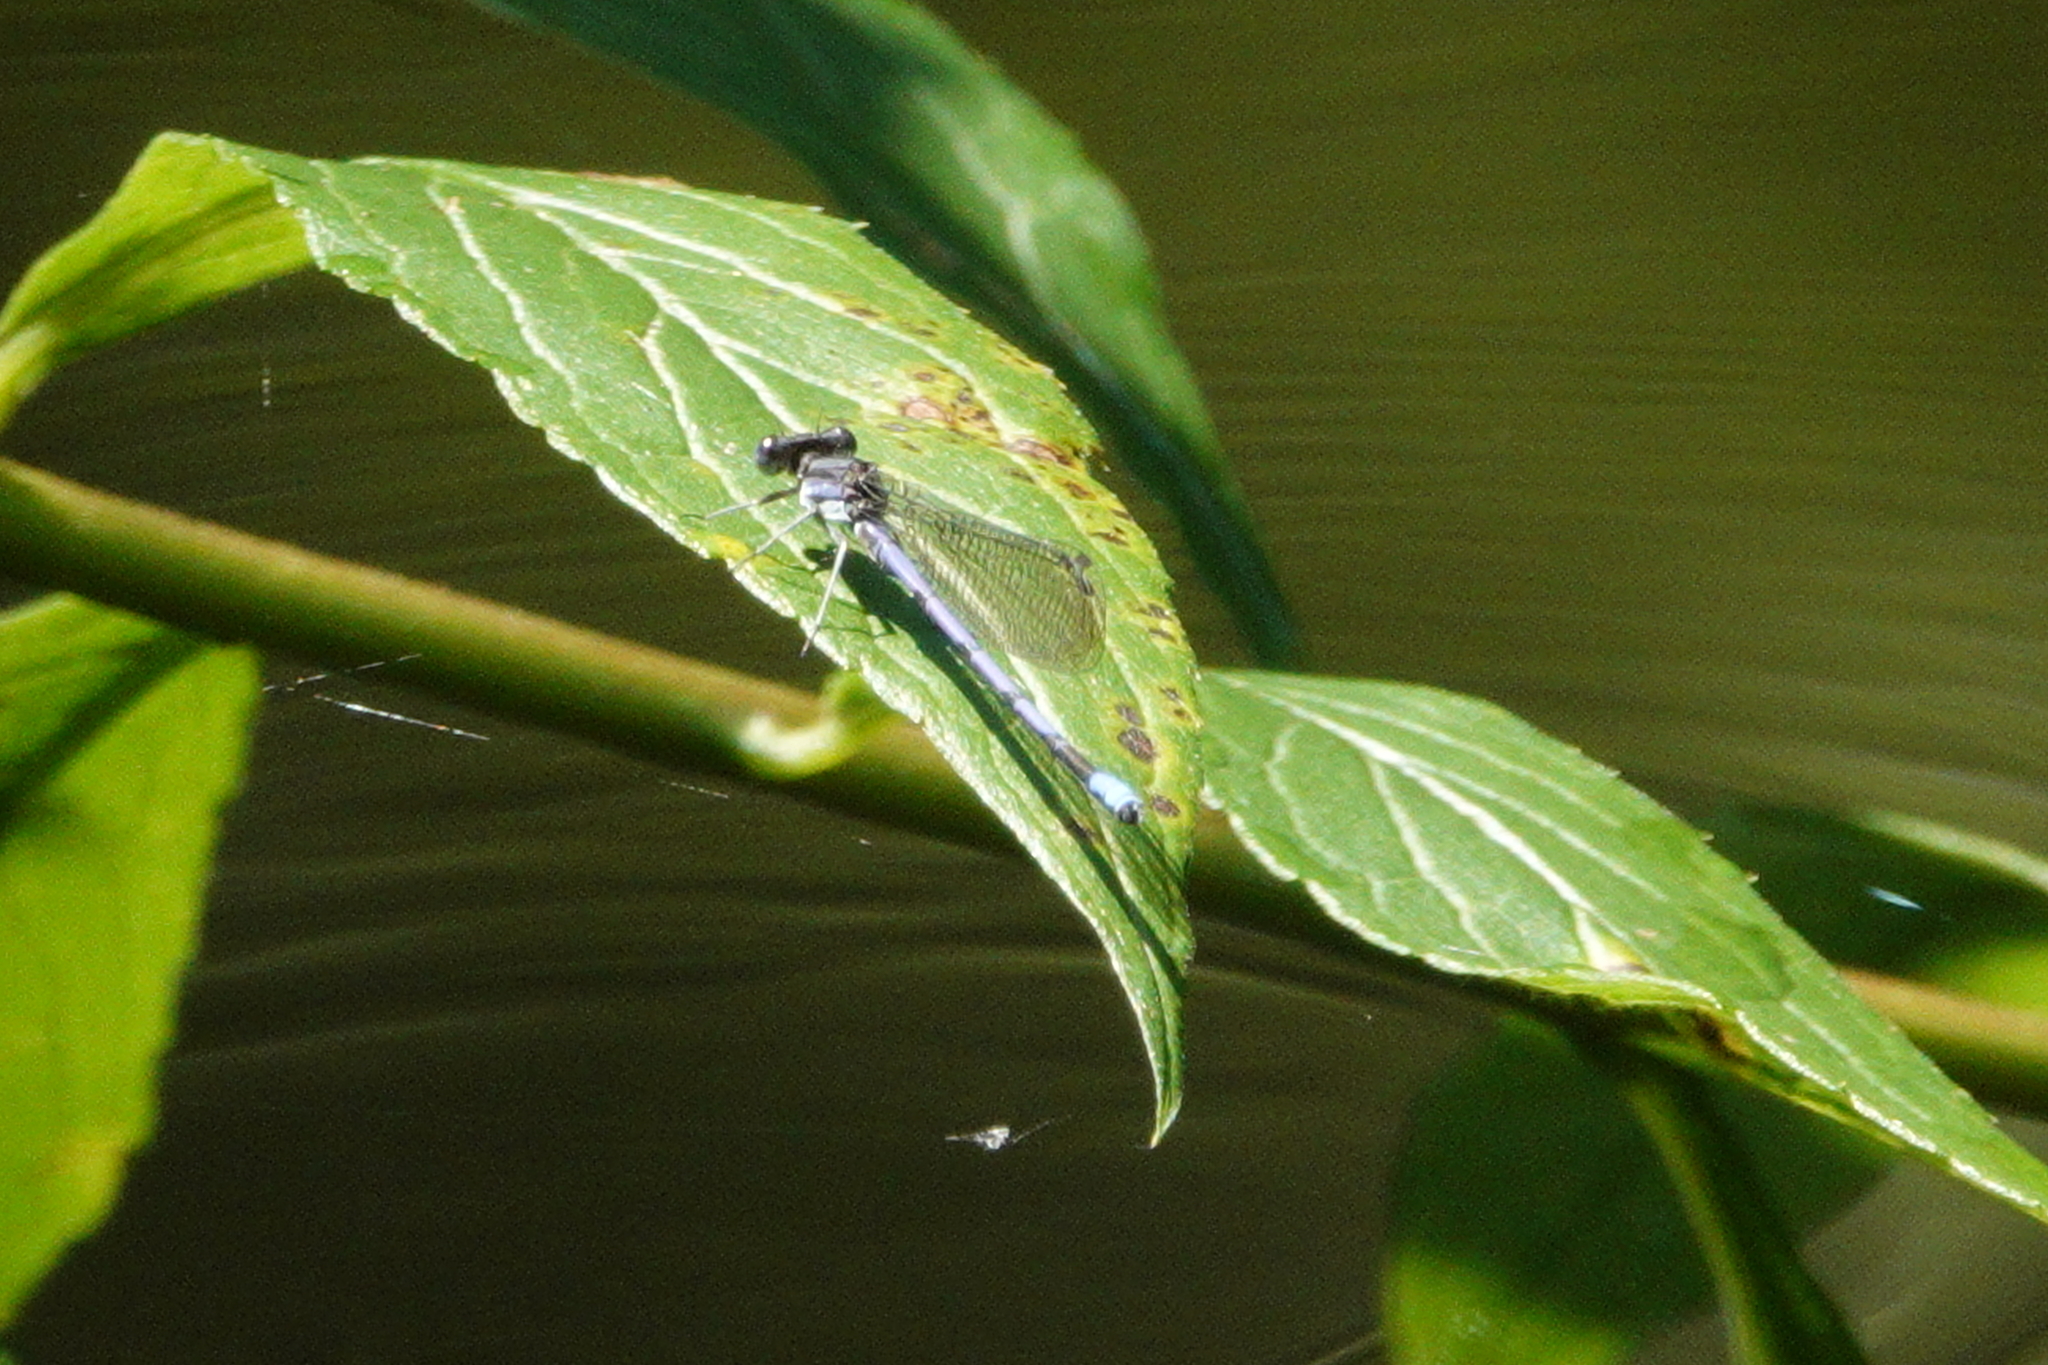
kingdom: Animalia
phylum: Arthropoda
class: Insecta
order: Odonata
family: Coenagrionidae
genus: Argia
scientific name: Argia fumipennis
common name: Variable dancer
